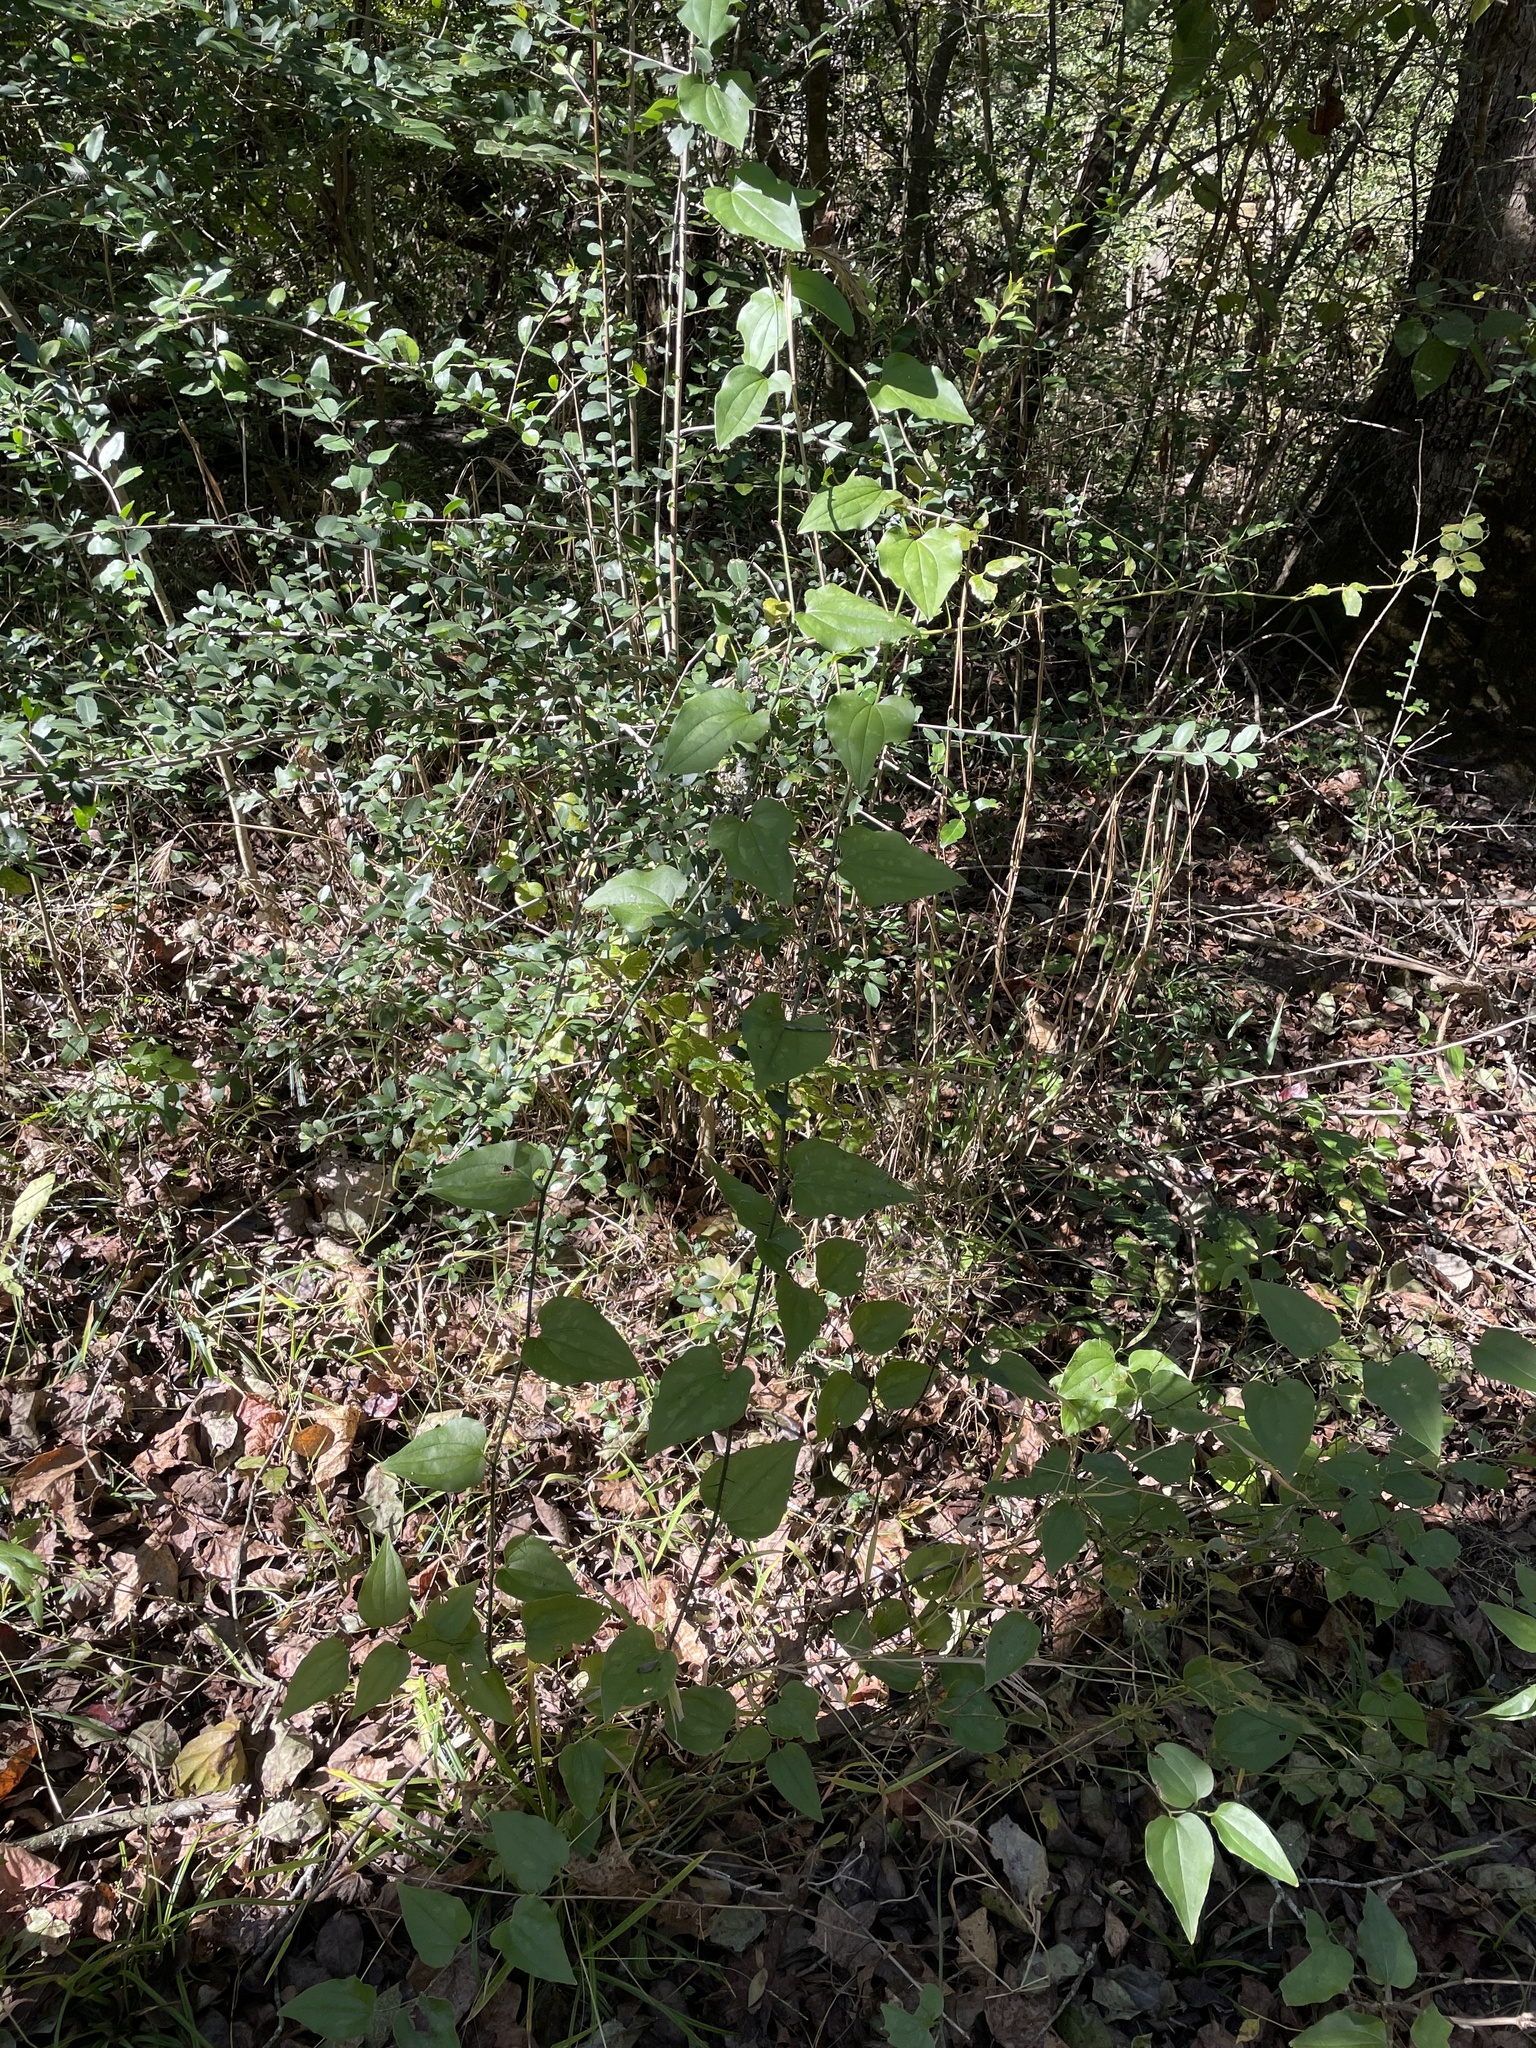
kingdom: Plantae
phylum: Tracheophyta
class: Liliopsida
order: Liliales
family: Smilacaceae
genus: Smilax
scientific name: Smilax tamnoides
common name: Hellfetter
